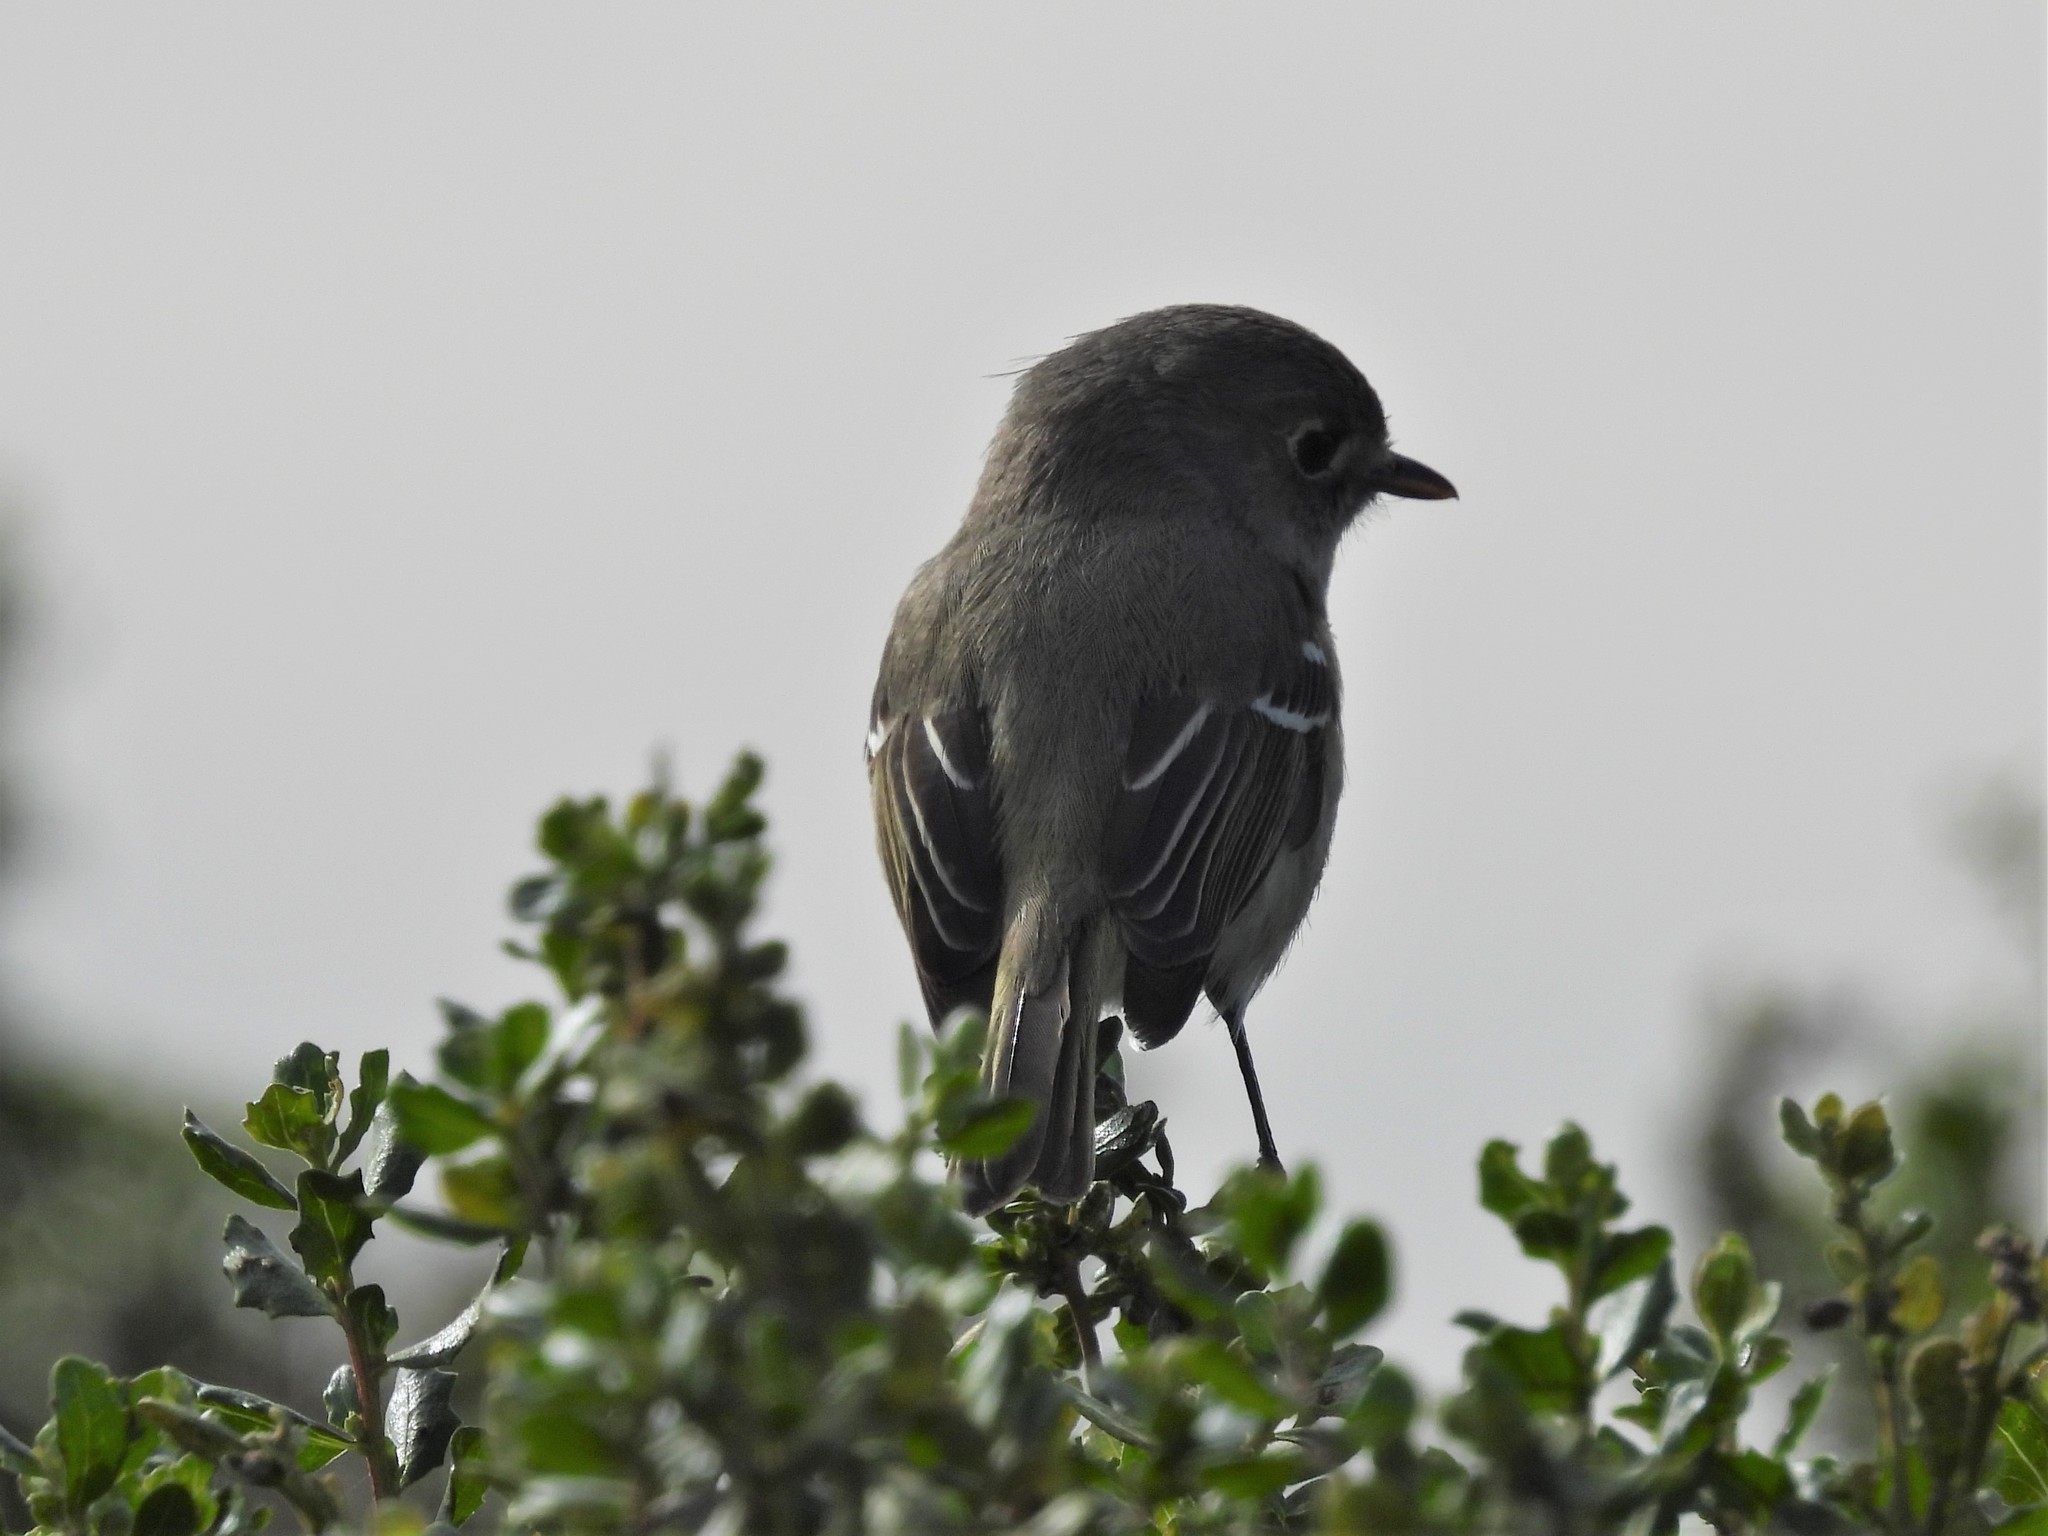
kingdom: Animalia
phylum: Chordata
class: Aves
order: Passeriformes
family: Vireonidae
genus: Vireo
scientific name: Vireo huttoni
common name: Hutton's vireo
